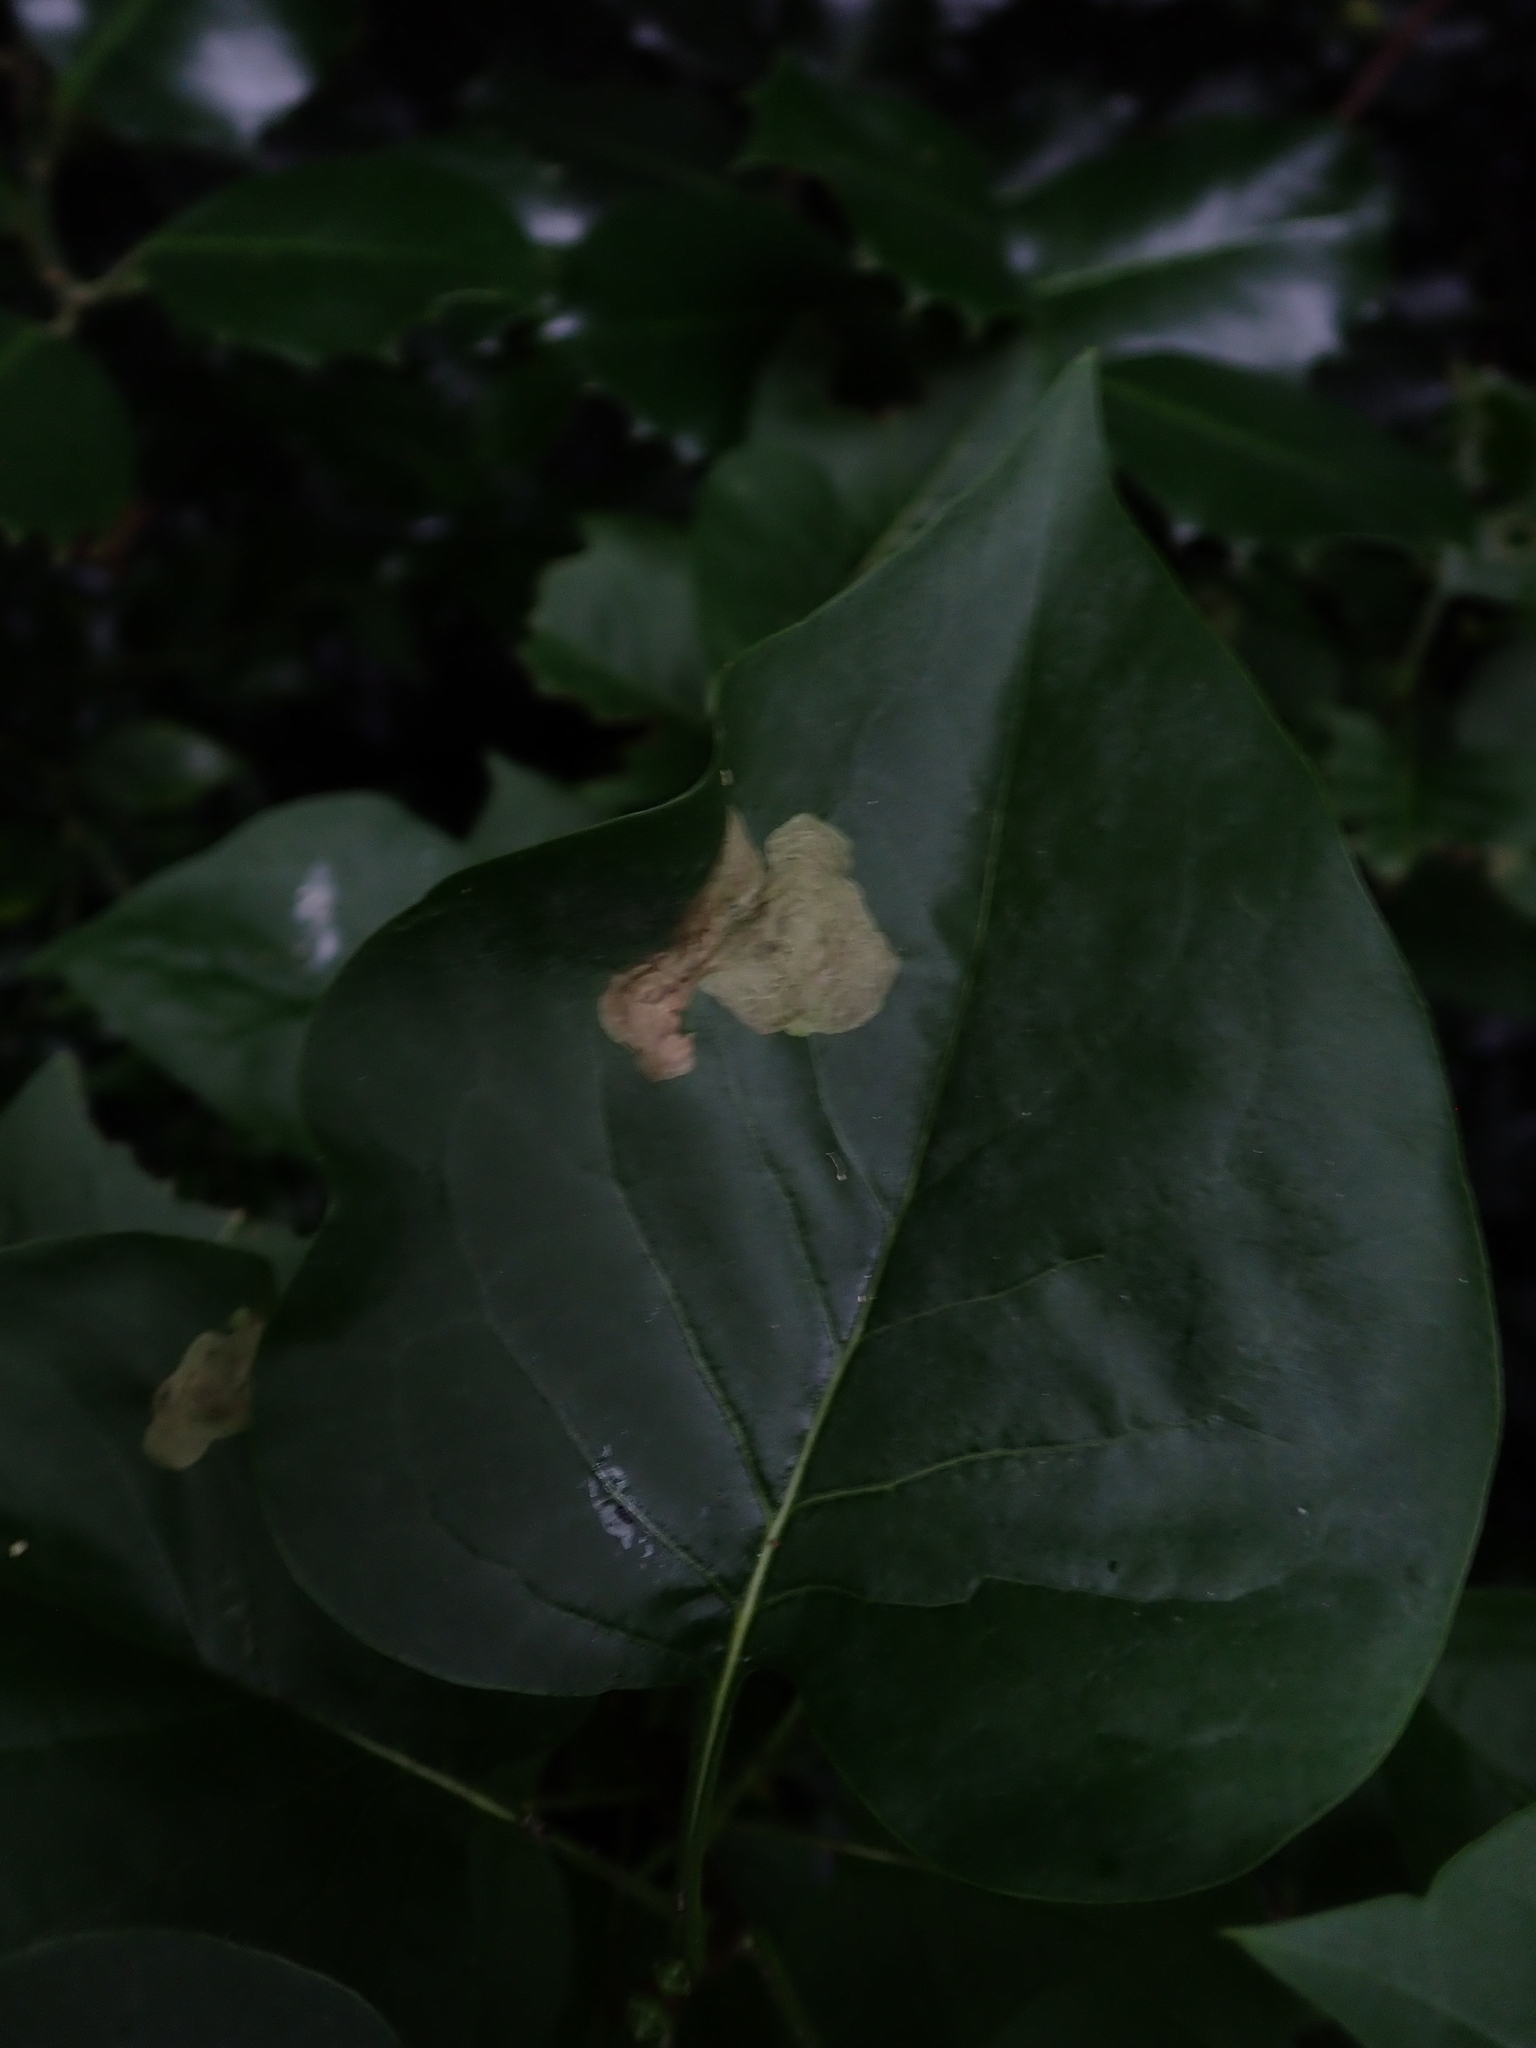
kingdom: Animalia
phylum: Arthropoda
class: Insecta
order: Lepidoptera
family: Gracillariidae
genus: Gracillaria
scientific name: Gracillaria syringella
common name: Common slender
